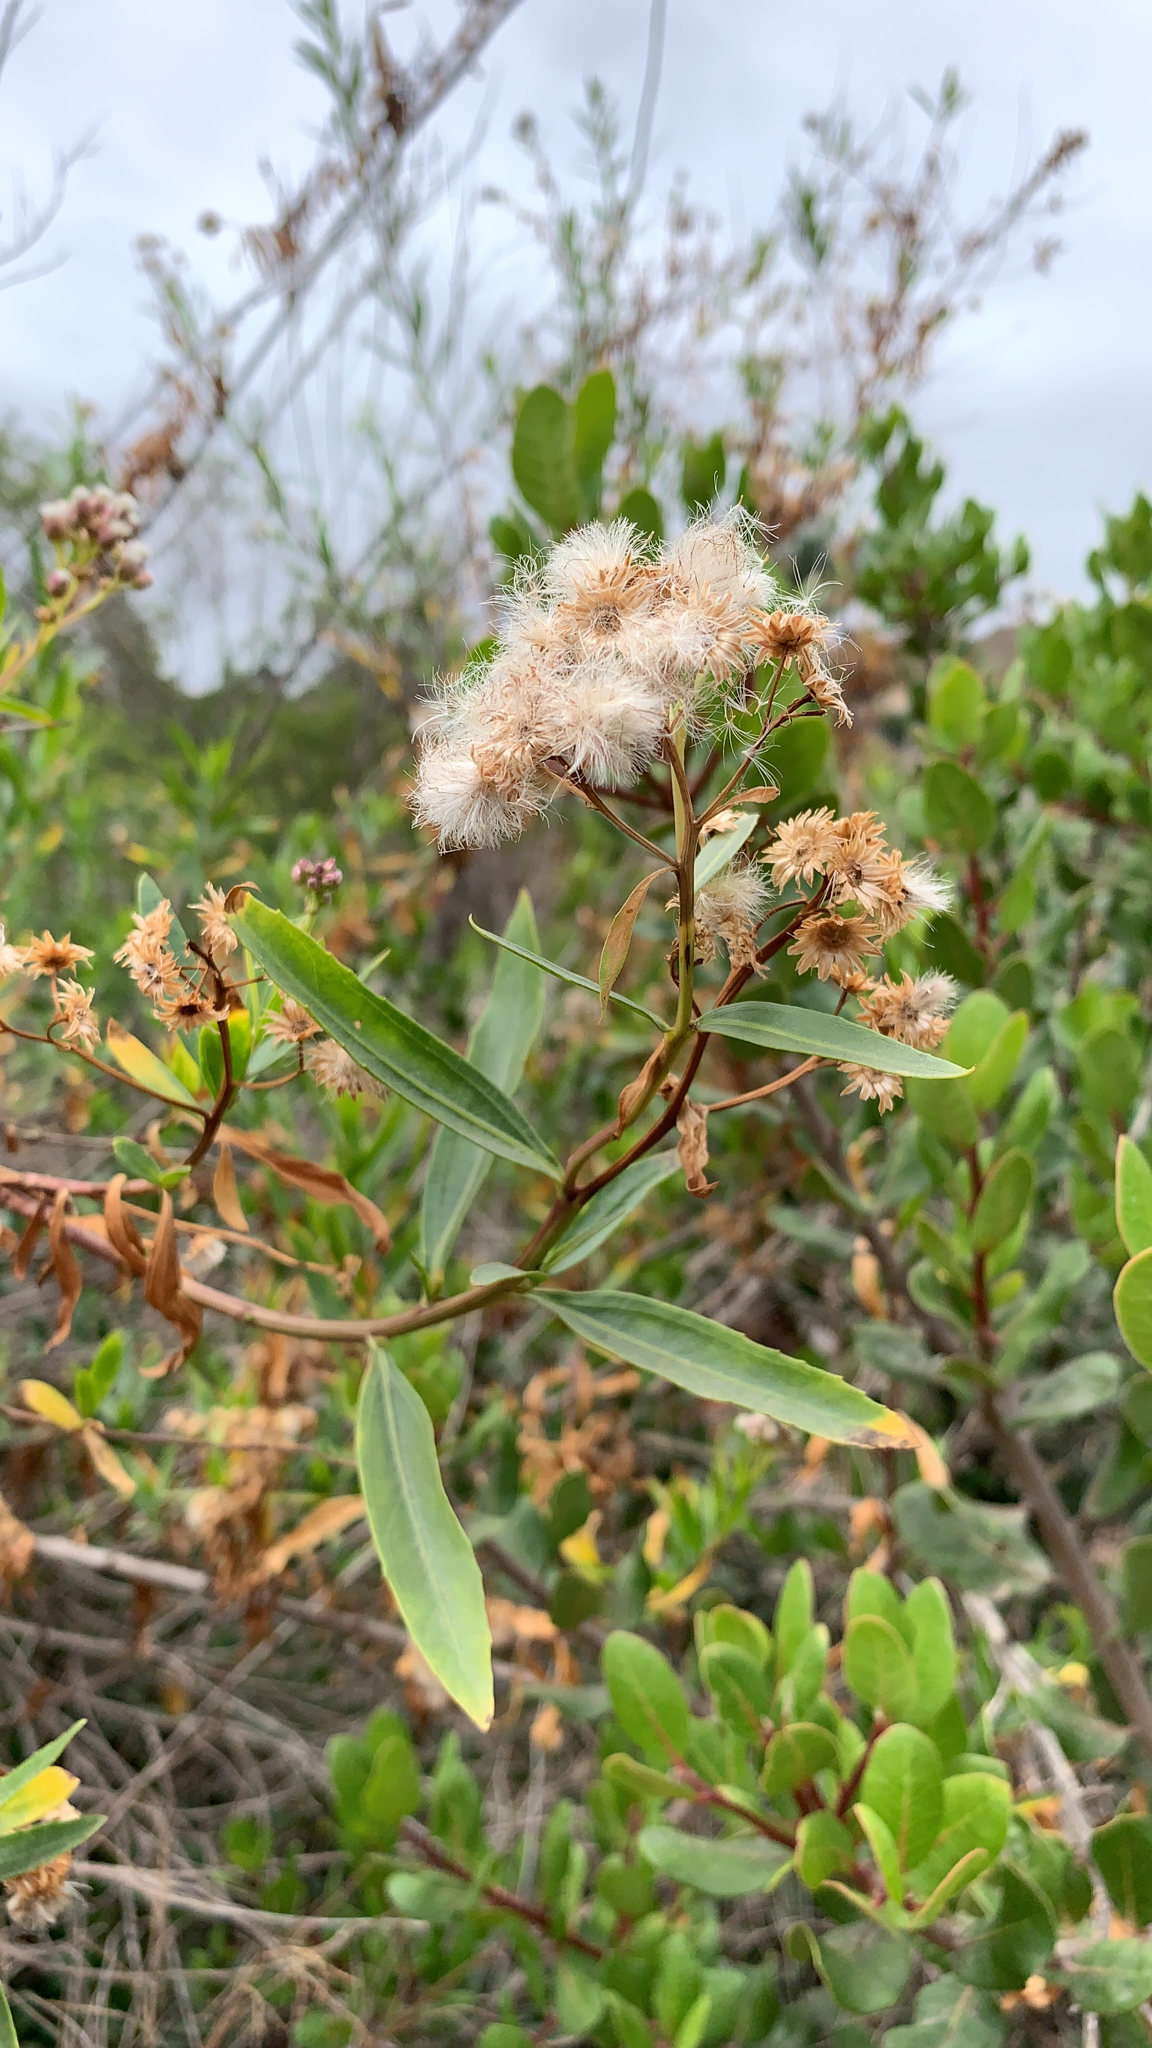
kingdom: Plantae
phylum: Tracheophyta
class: Magnoliopsida
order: Asterales
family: Asteraceae
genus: Baccharis
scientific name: Baccharis salicifolia
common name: Sticky baccharis
